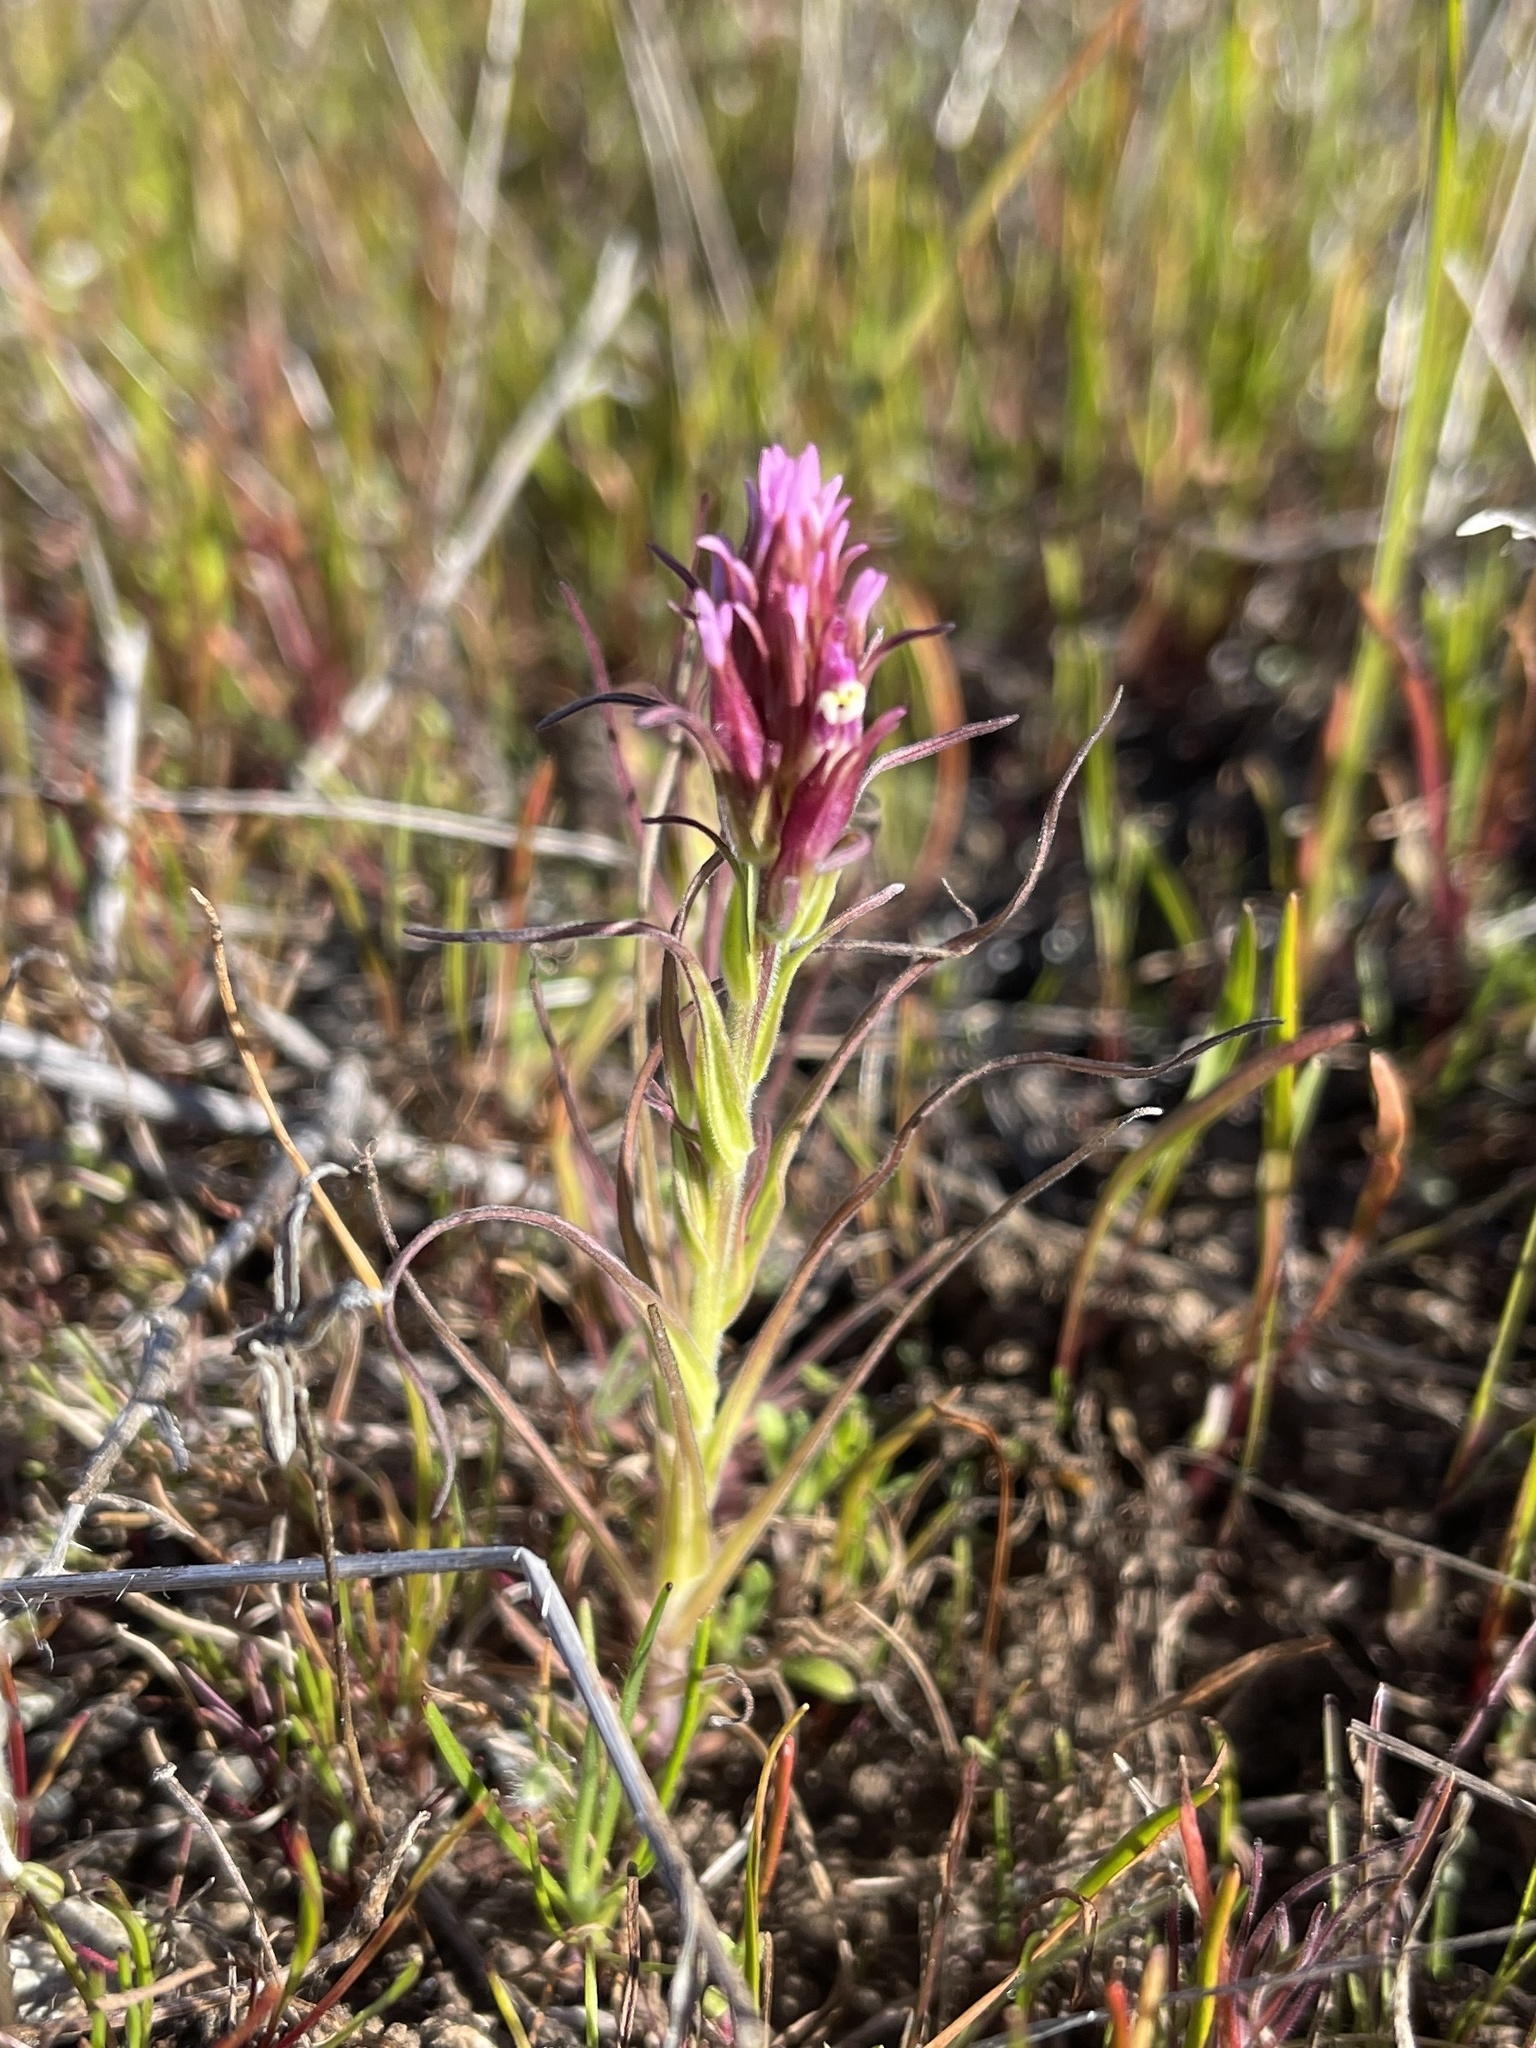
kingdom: Plantae
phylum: Tracheophyta
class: Magnoliopsida
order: Lamiales
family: Orobanchaceae
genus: Castilleja
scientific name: Castilleja densiflora
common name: Dense-flower indian paintbrush
